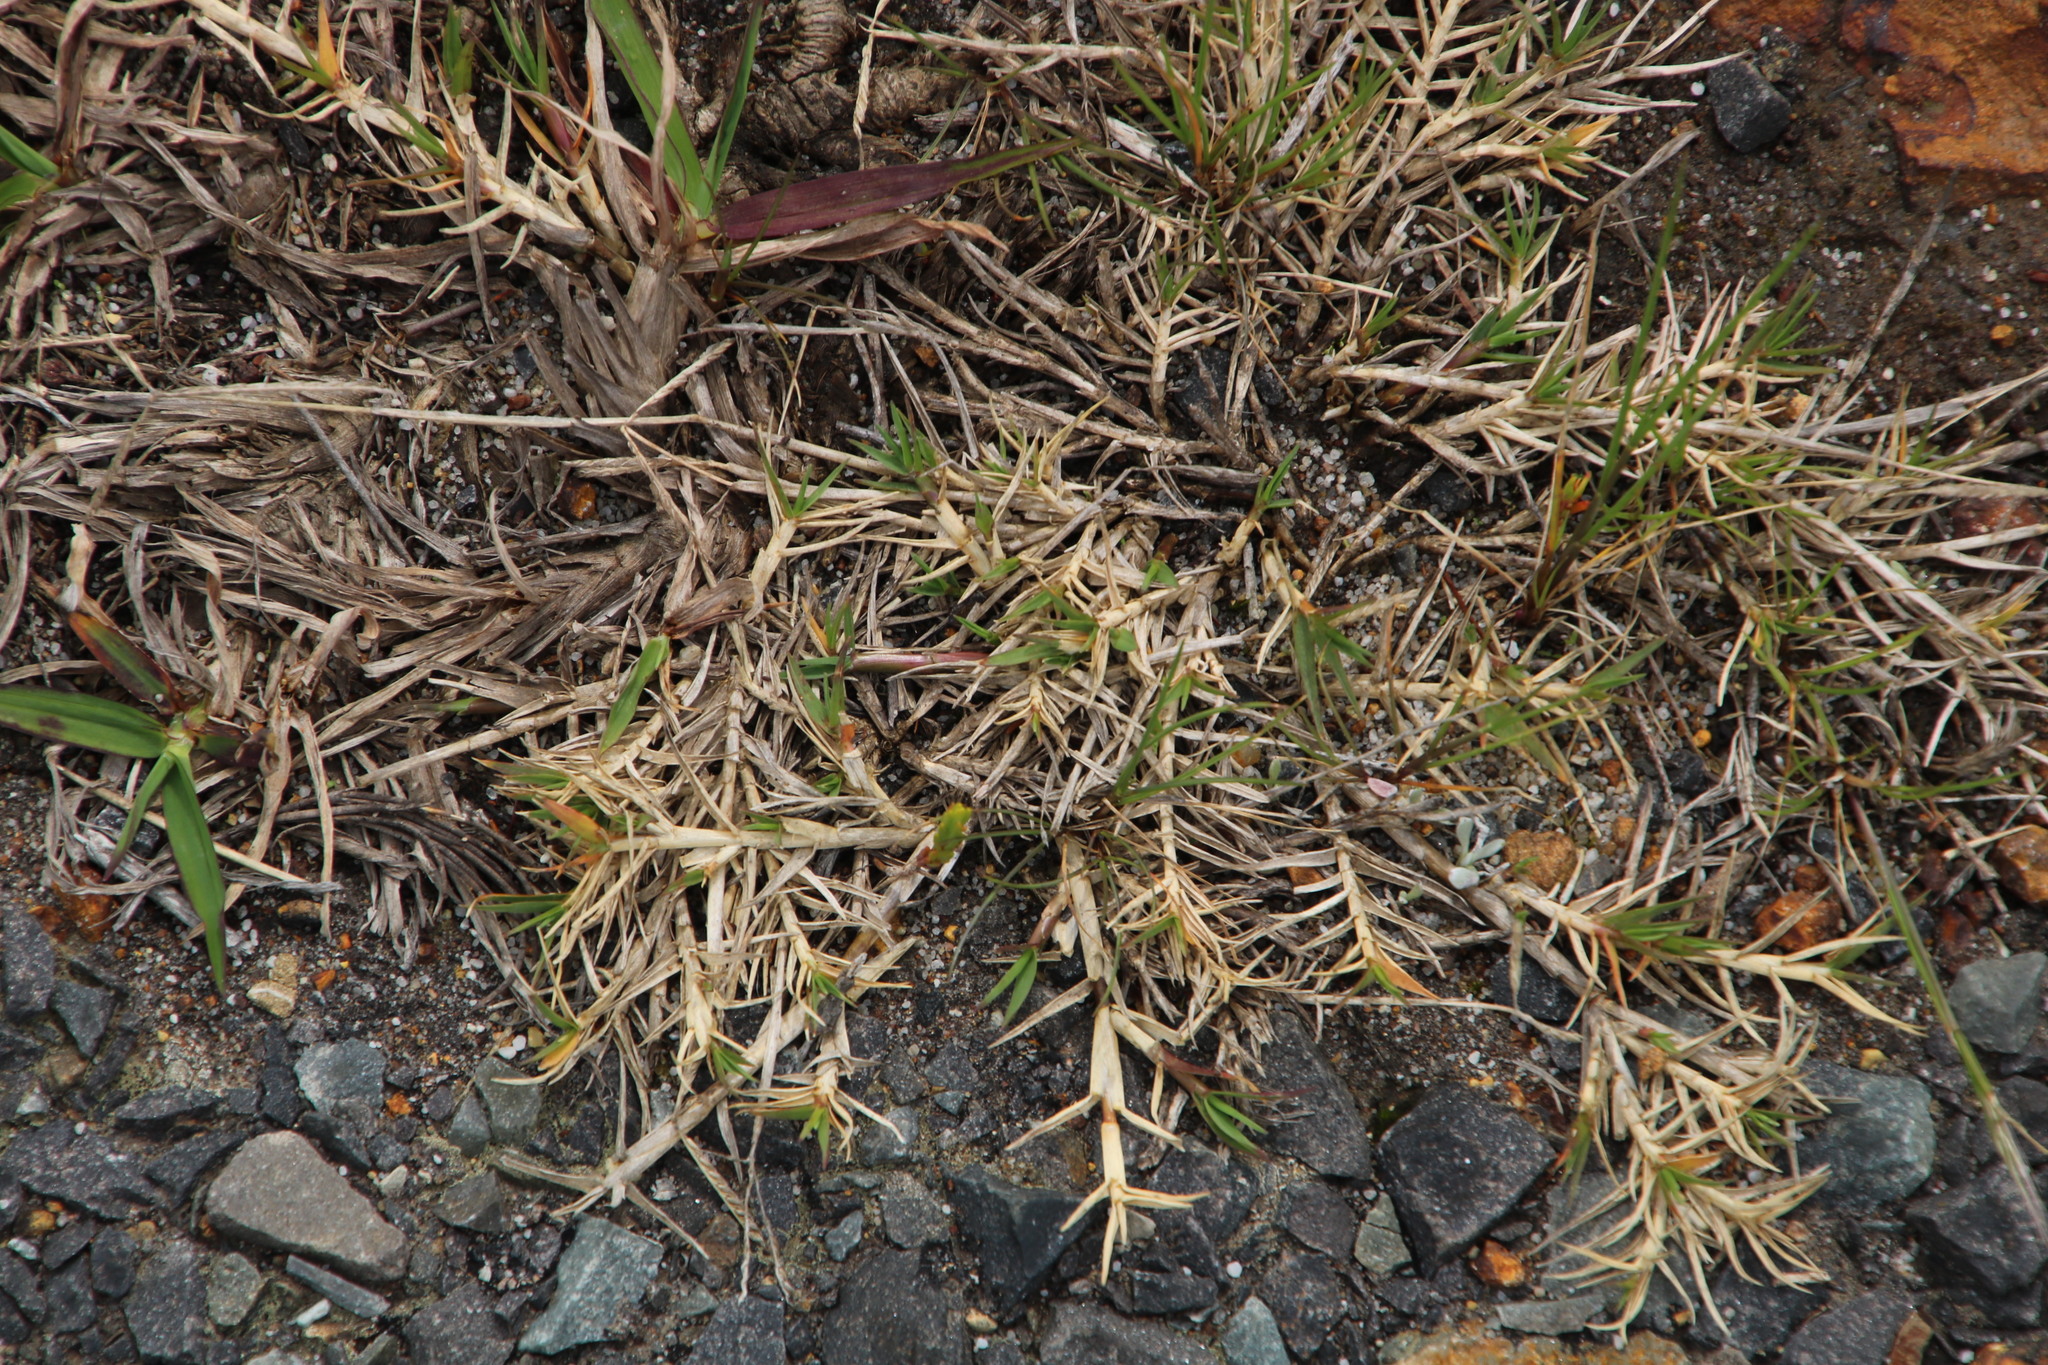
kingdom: Plantae
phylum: Tracheophyta
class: Liliopsida
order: Poales
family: Poaceae
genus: Cynodon
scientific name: Cynodon dactylon
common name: Bermuda grass
